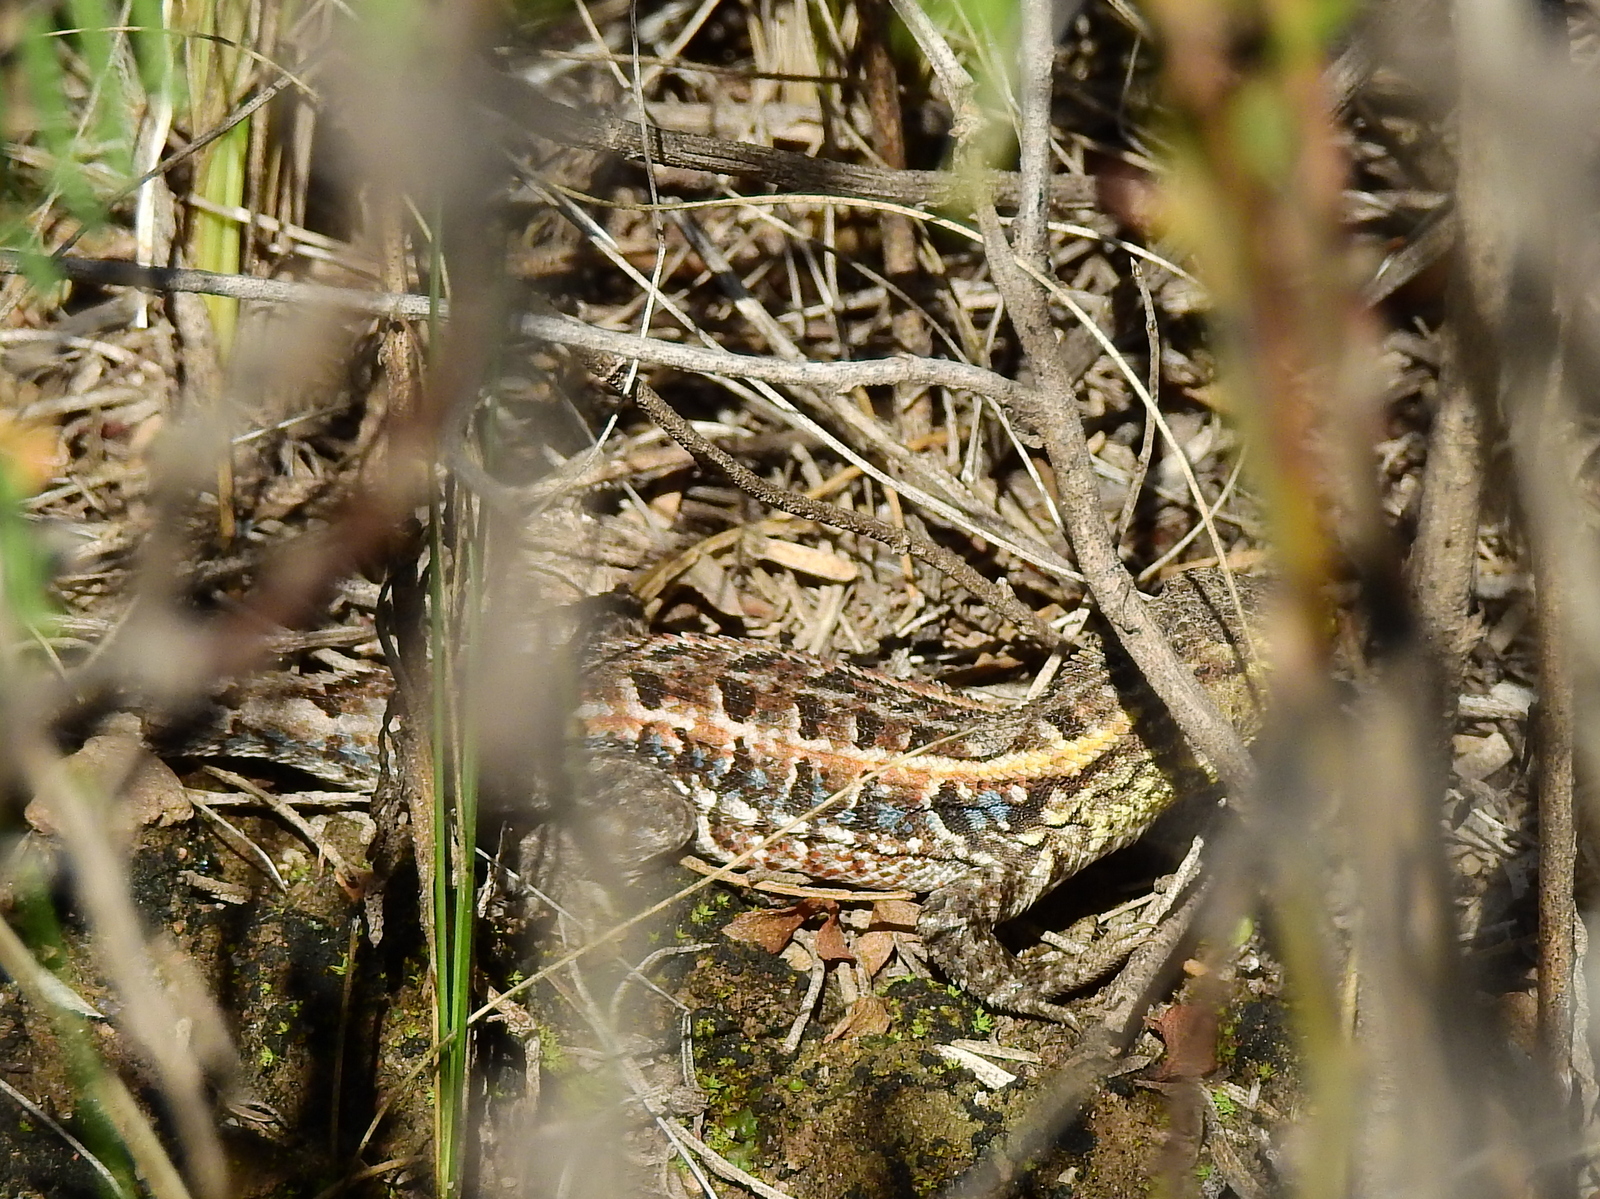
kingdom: Animalia
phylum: Chordata
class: Squamata
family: Liolaemidae
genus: Liolaemus
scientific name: Liolaemus wiegmannii
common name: Wiegmann's tree iguana
